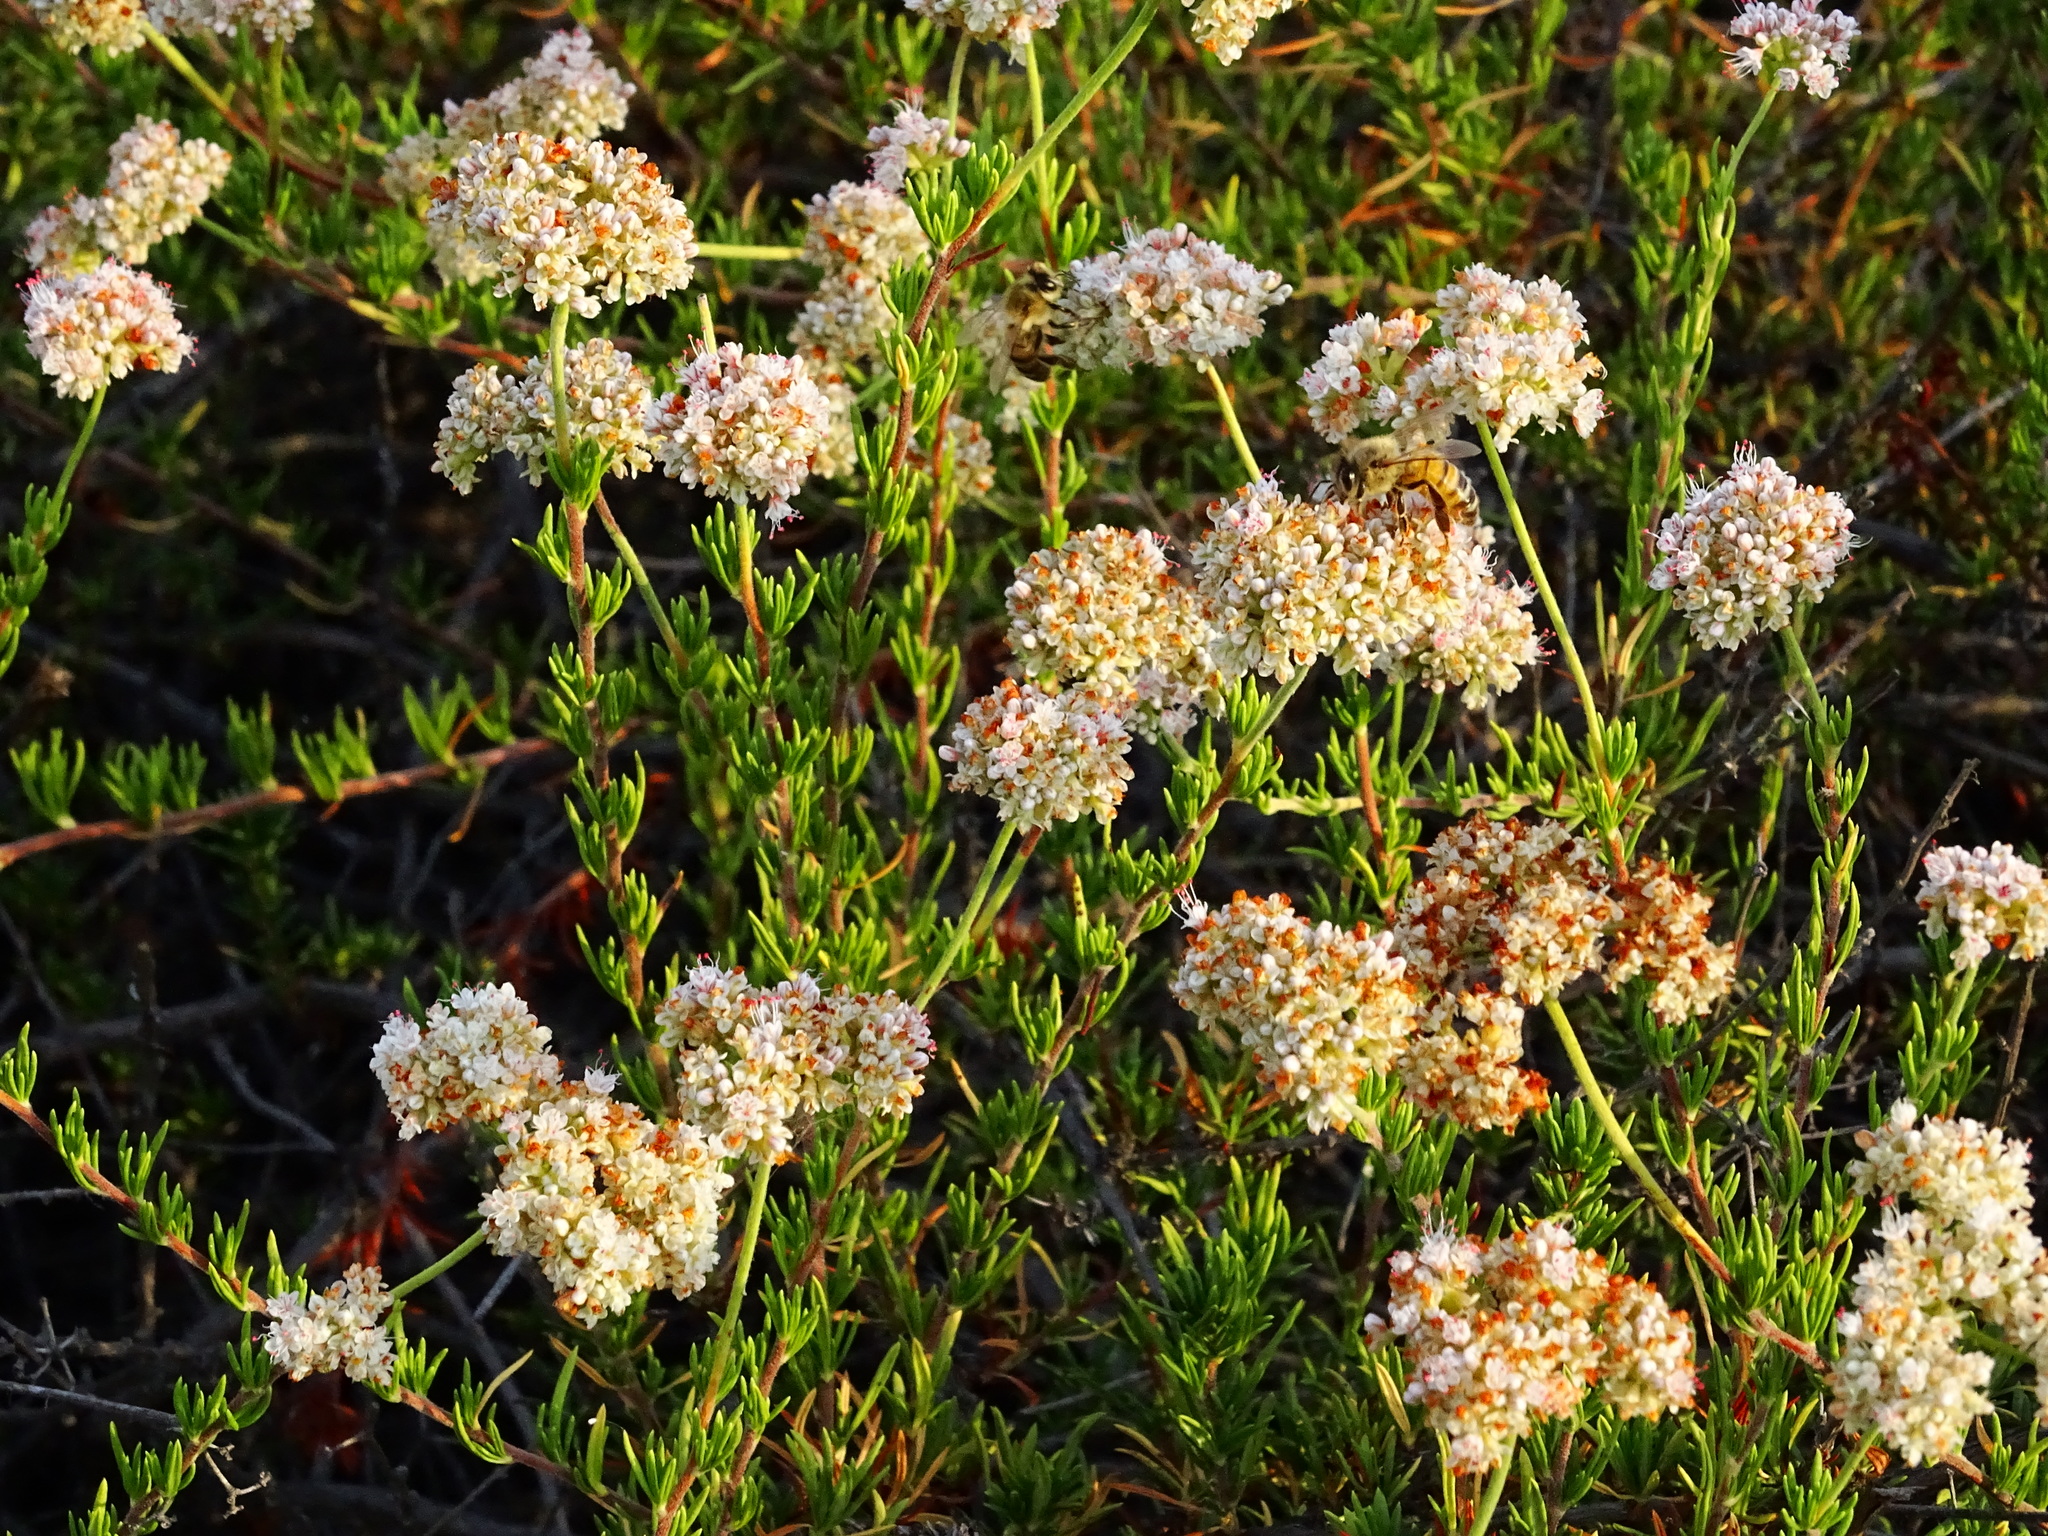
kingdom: Plantae
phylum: Tracheophyta
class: Magnoliopsida
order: Caryophyllales
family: Polygonaceae
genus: Eriogonum
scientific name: Eriogonum fasciculatum
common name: California wild buckwheat
